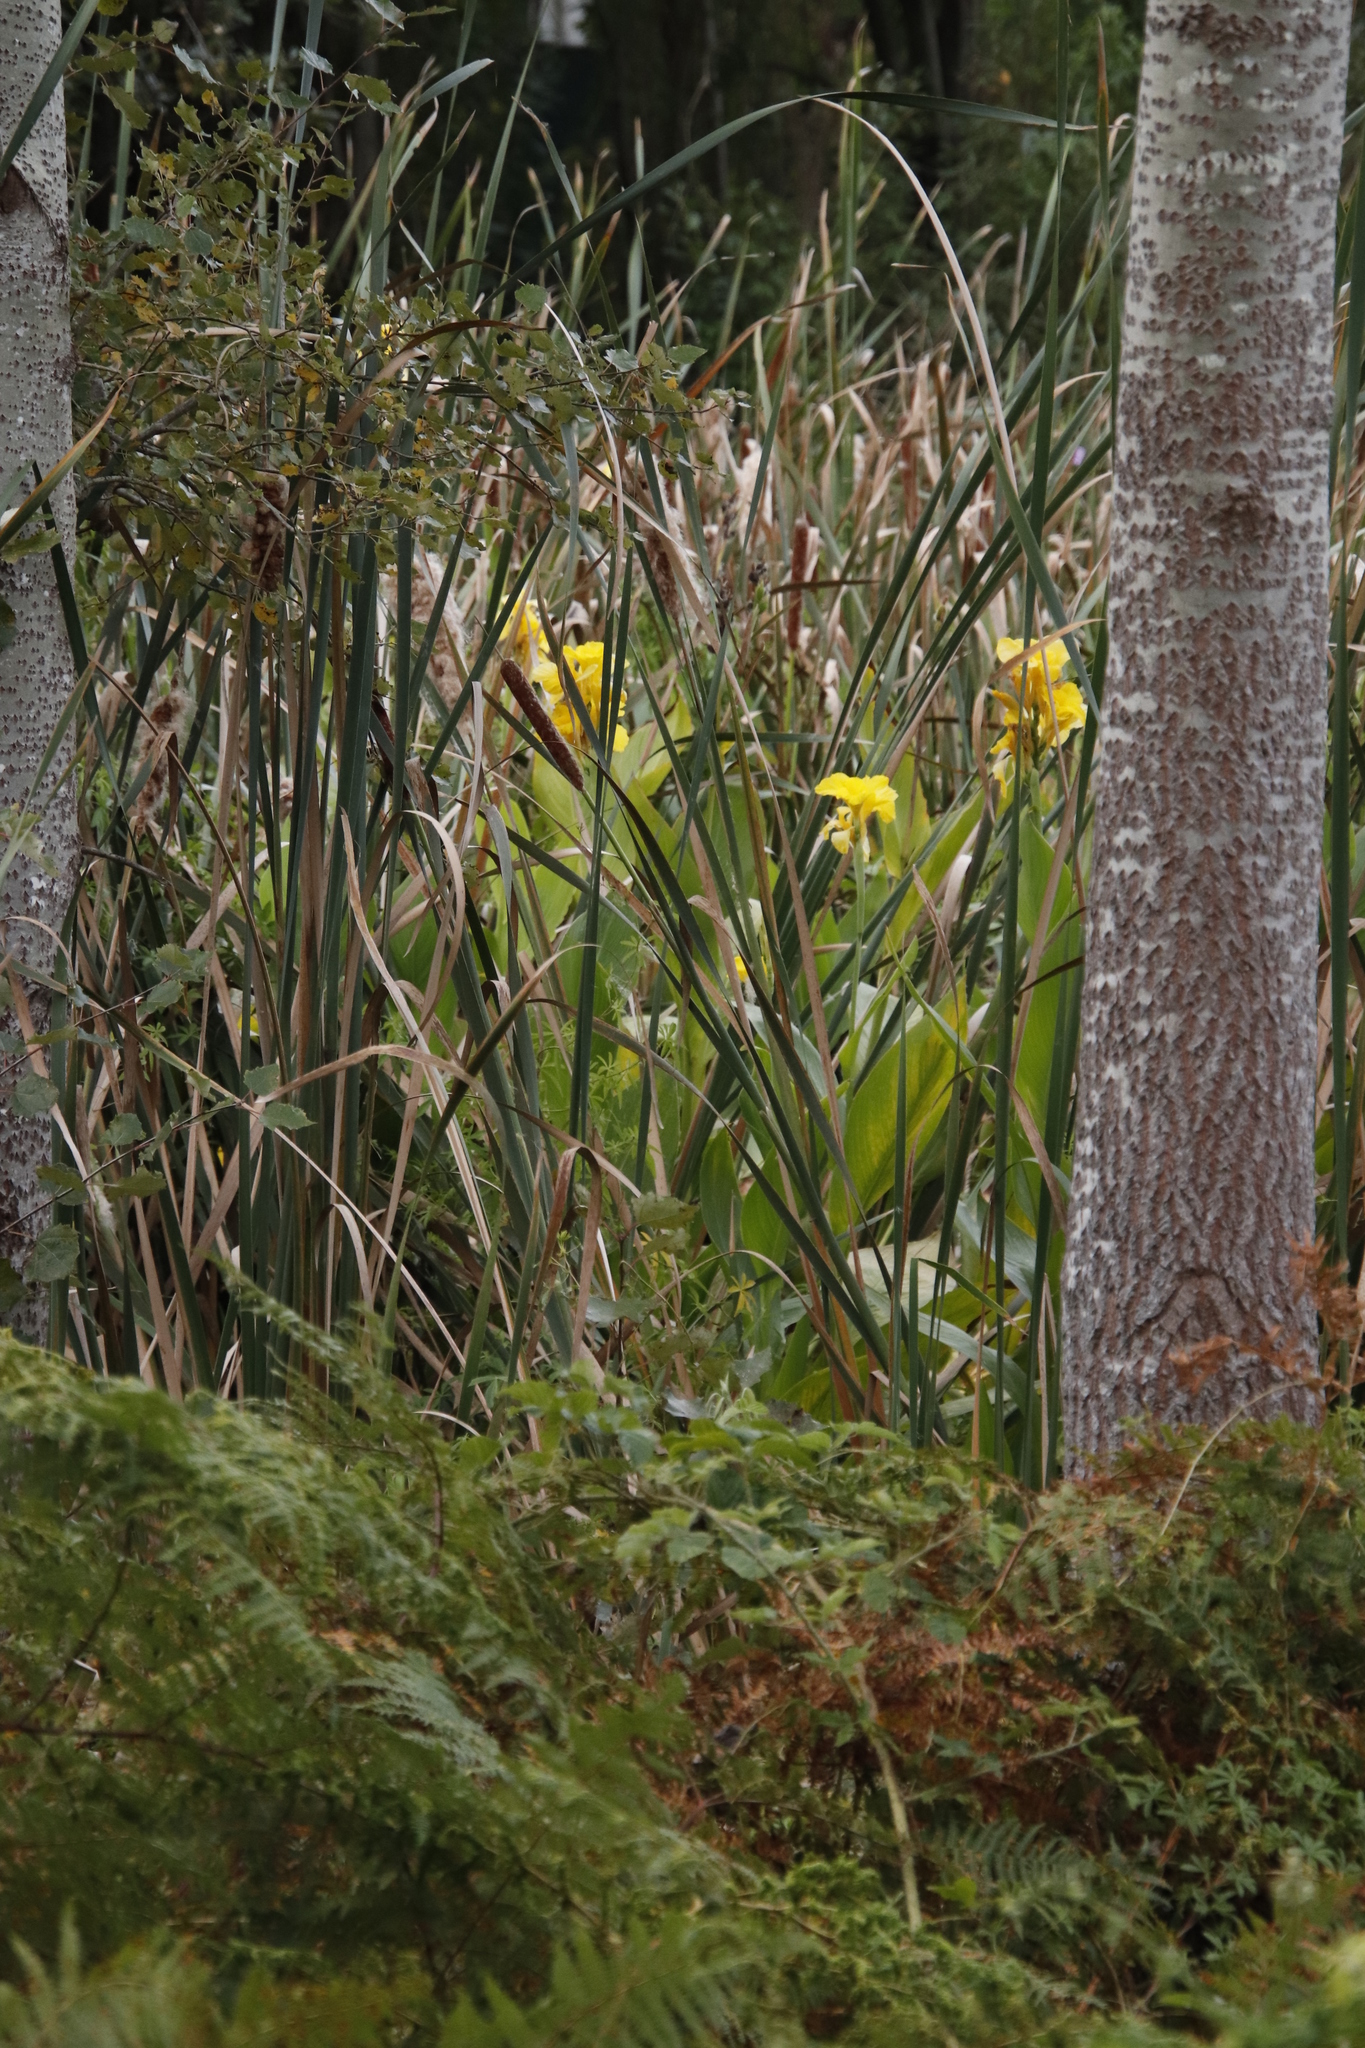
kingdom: Plantae
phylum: Tracheophyta
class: Liliopsida
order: Zingiberales
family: Cannaceae
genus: Canna
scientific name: Canna hybrida
